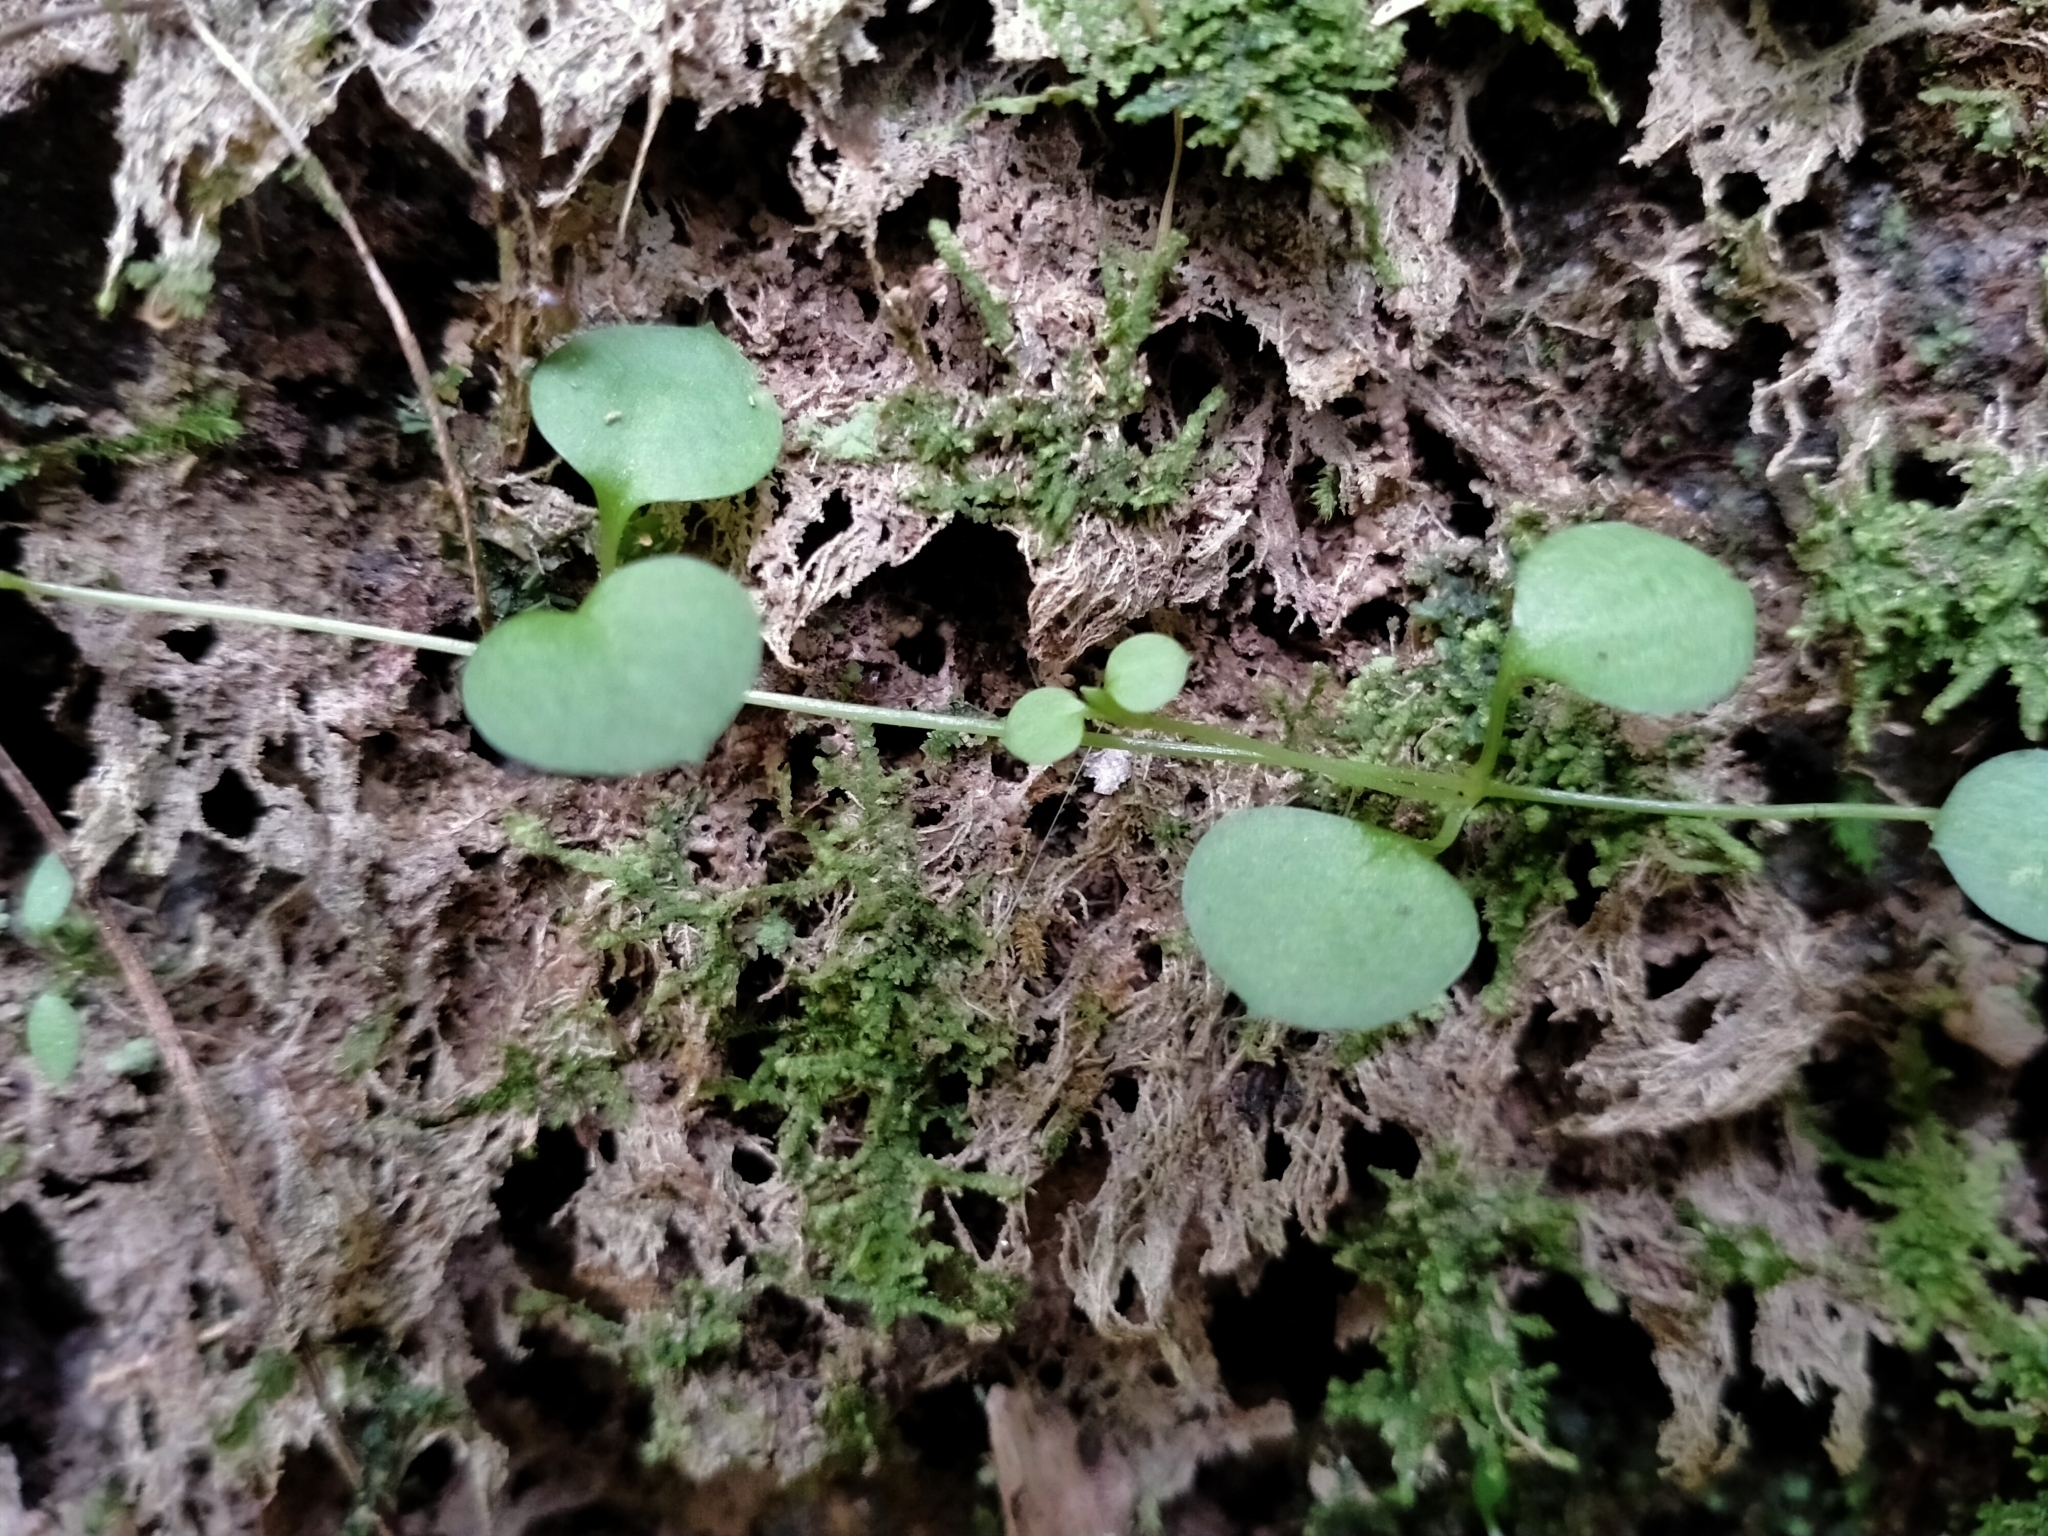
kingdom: Plantae
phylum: Tracheophyta
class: Magnoliopsida
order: Caryophyllales
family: Caryophyllaceae
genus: Stellaria
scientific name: Stellaria parviflora
